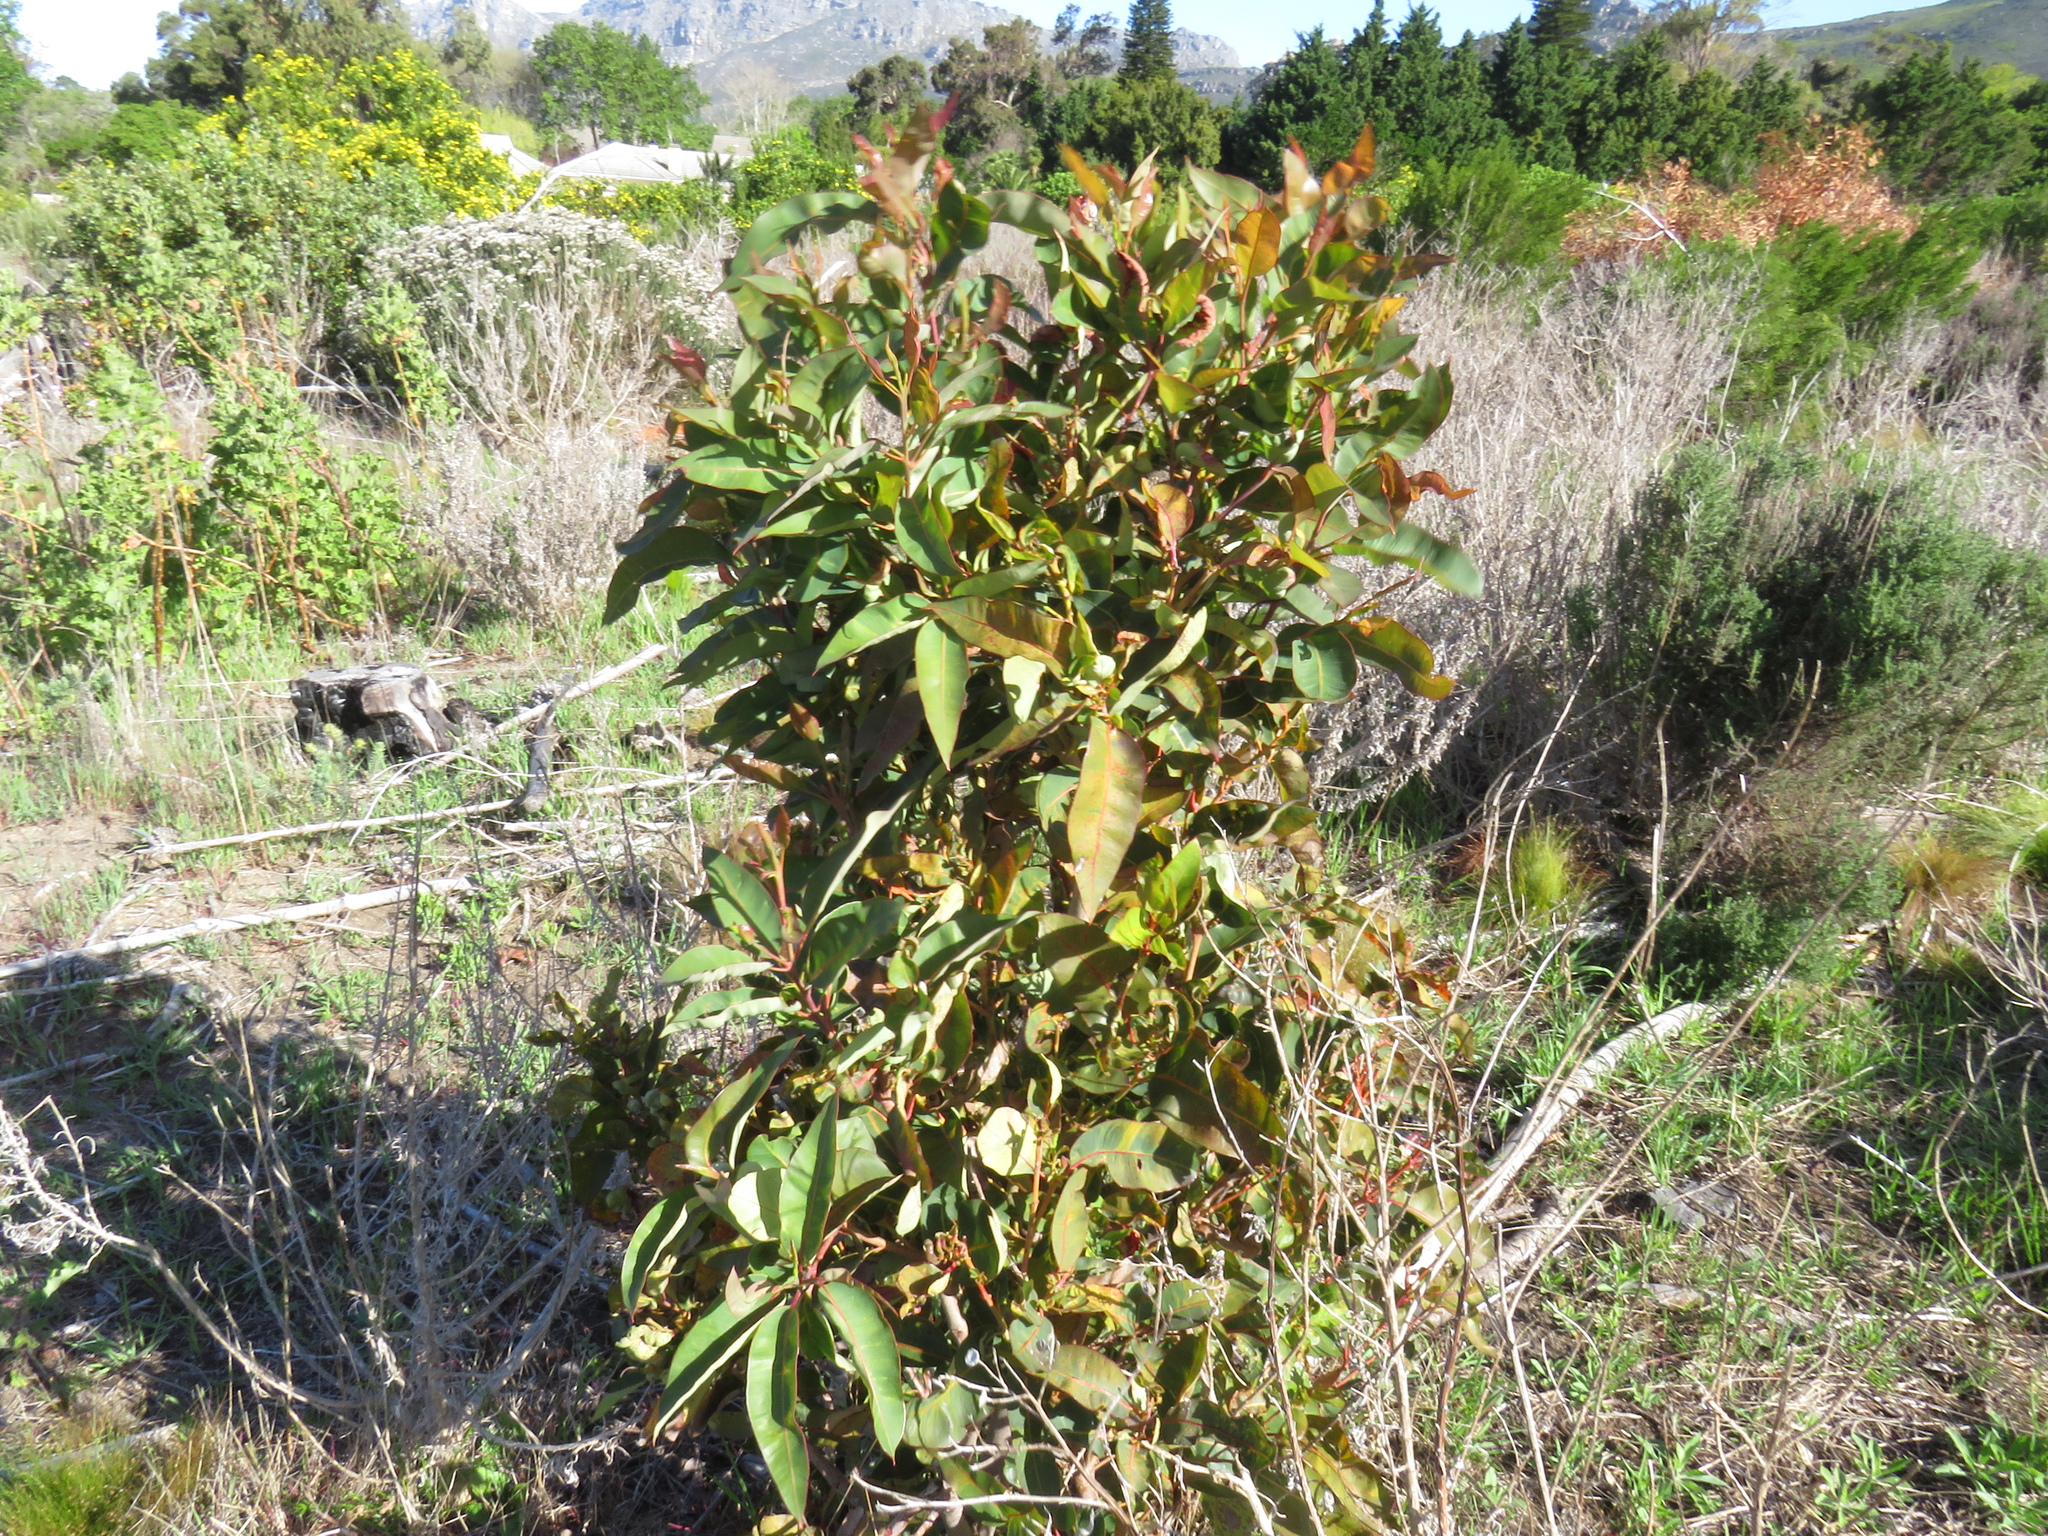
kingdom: Plantae
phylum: Tracheophyta
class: Magnoliopsida
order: Myrtales
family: Myrtaceae
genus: Corymbia
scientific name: Corymbia ficifolia
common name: Redflower gum
